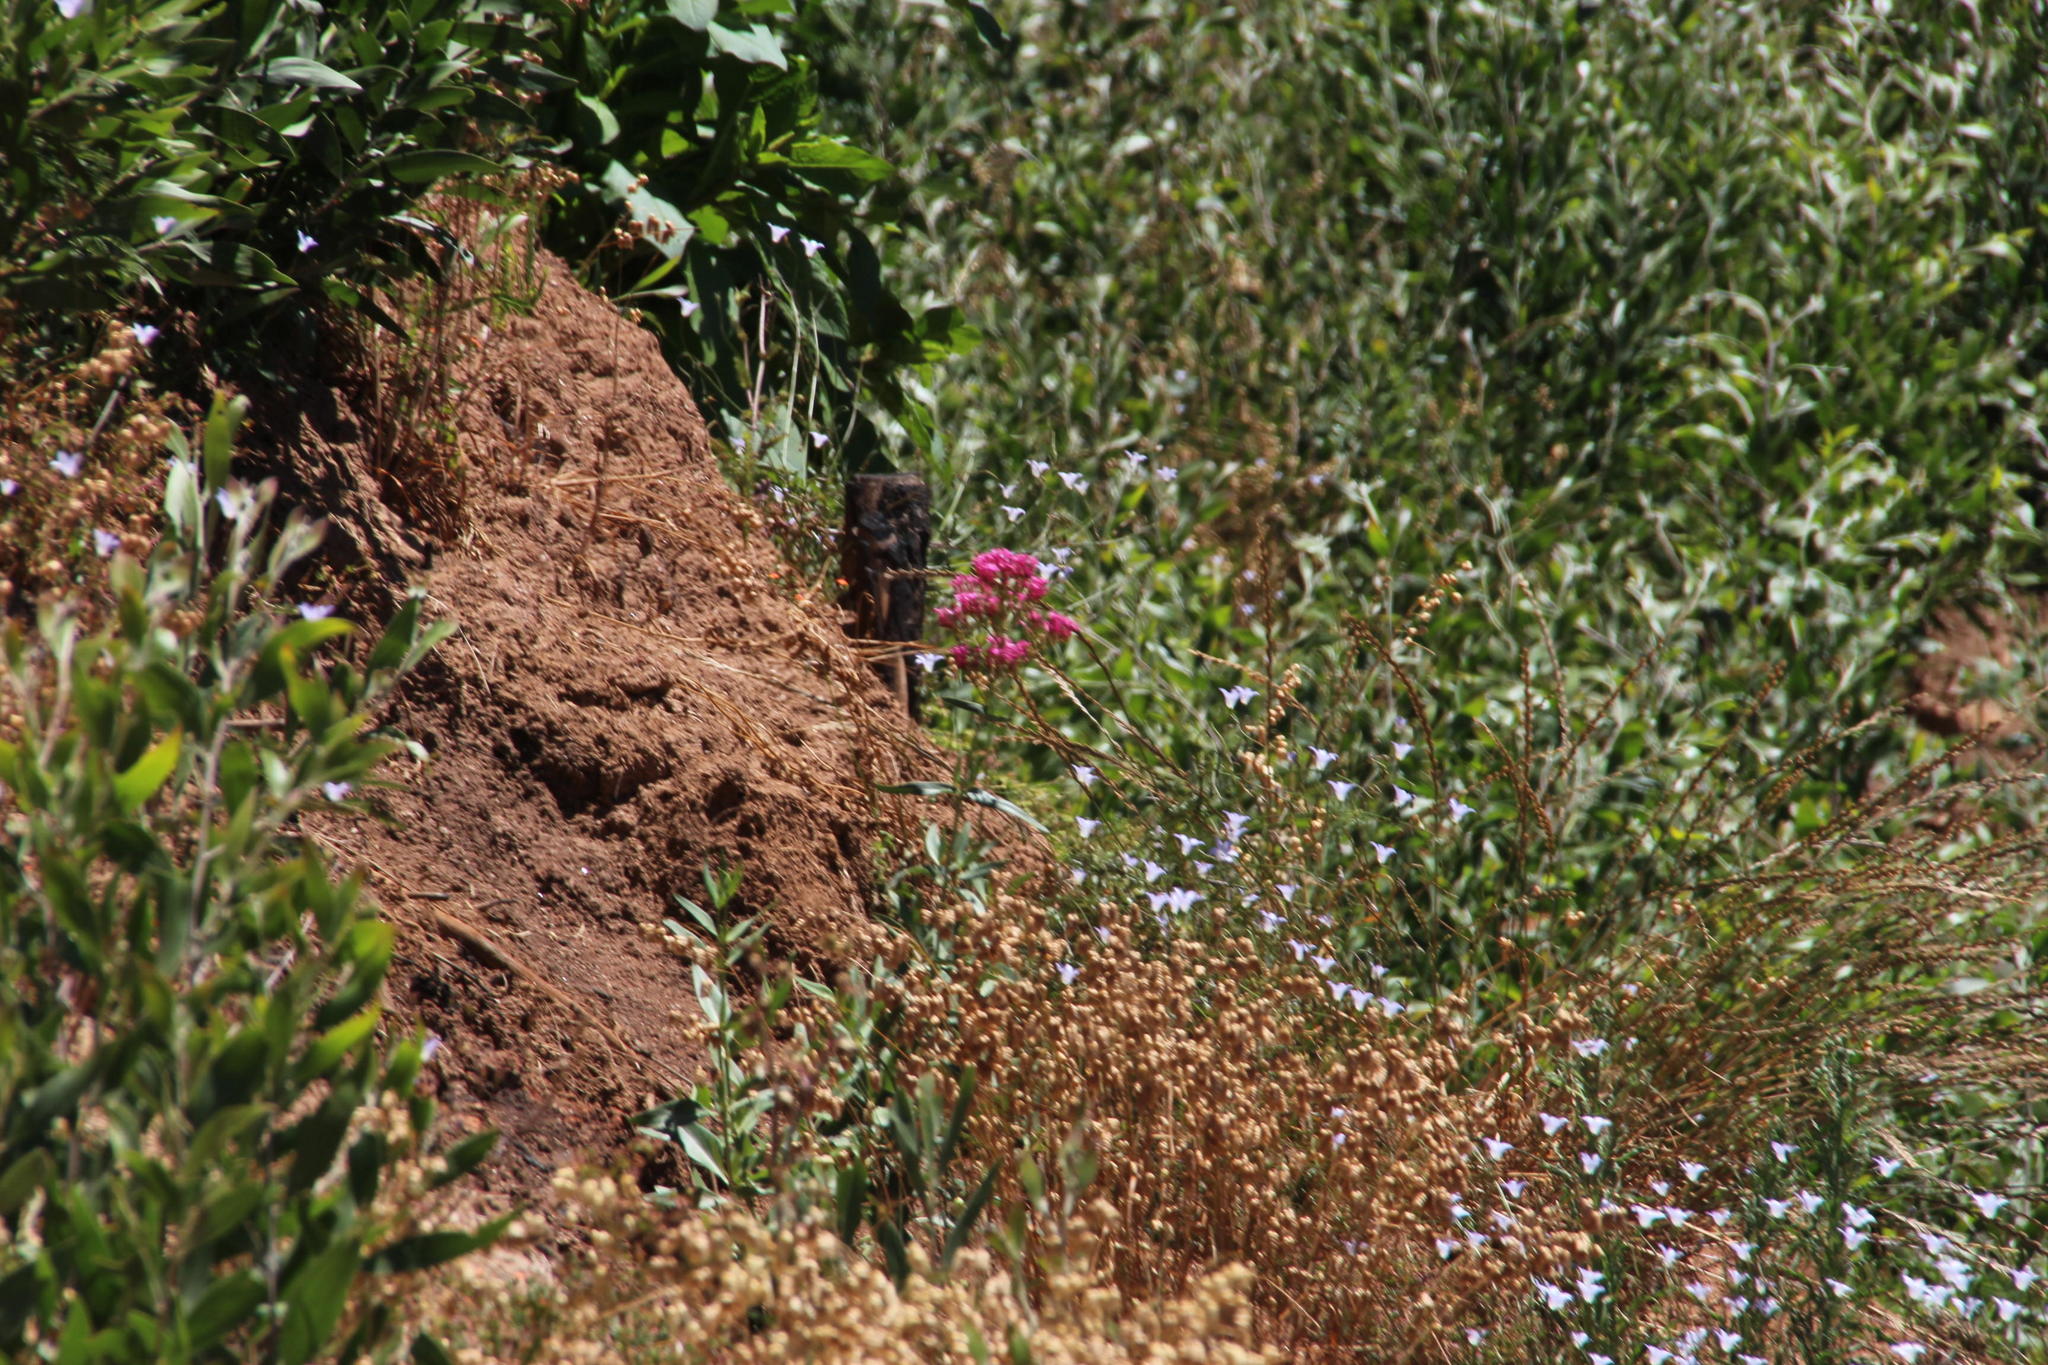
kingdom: Plantae
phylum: Tracheophyta
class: Magnoliopsida
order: Dipsacales
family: Caprifoliaceae
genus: Centranthus
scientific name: Centranthus ruber
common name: Red valerian
